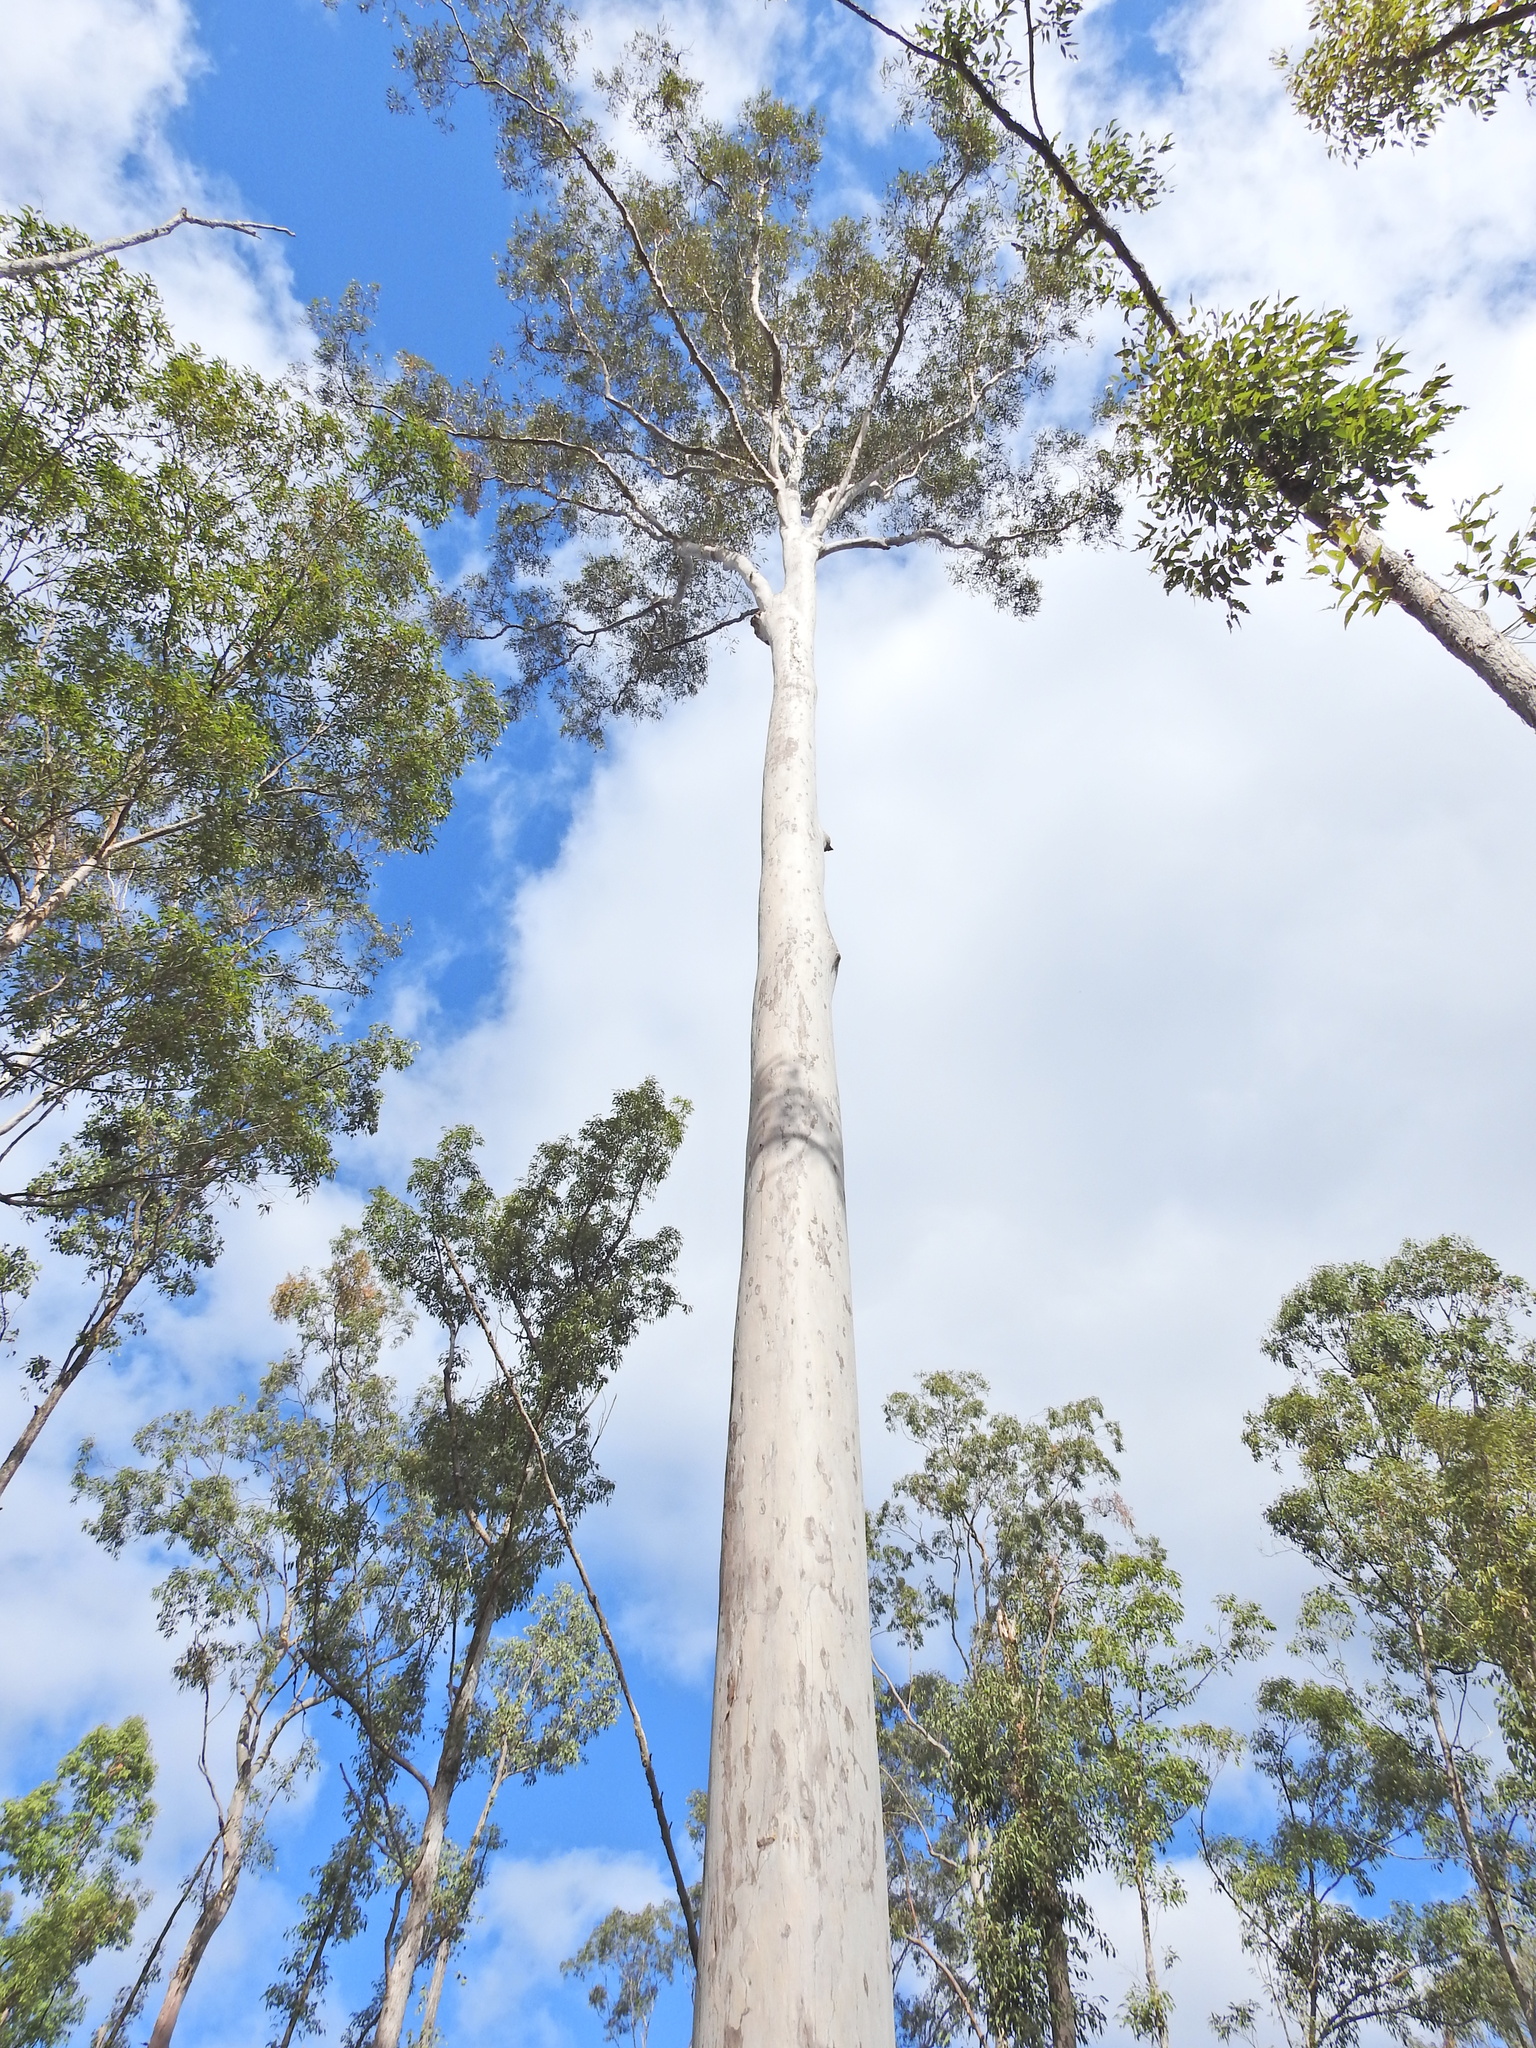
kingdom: Plantae
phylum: Tracheophyta
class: Magnoliopsida
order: Myrtales
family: Myrtaceae
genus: Corymbia
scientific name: Corymbia citriodora
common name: Lemonscented gum
